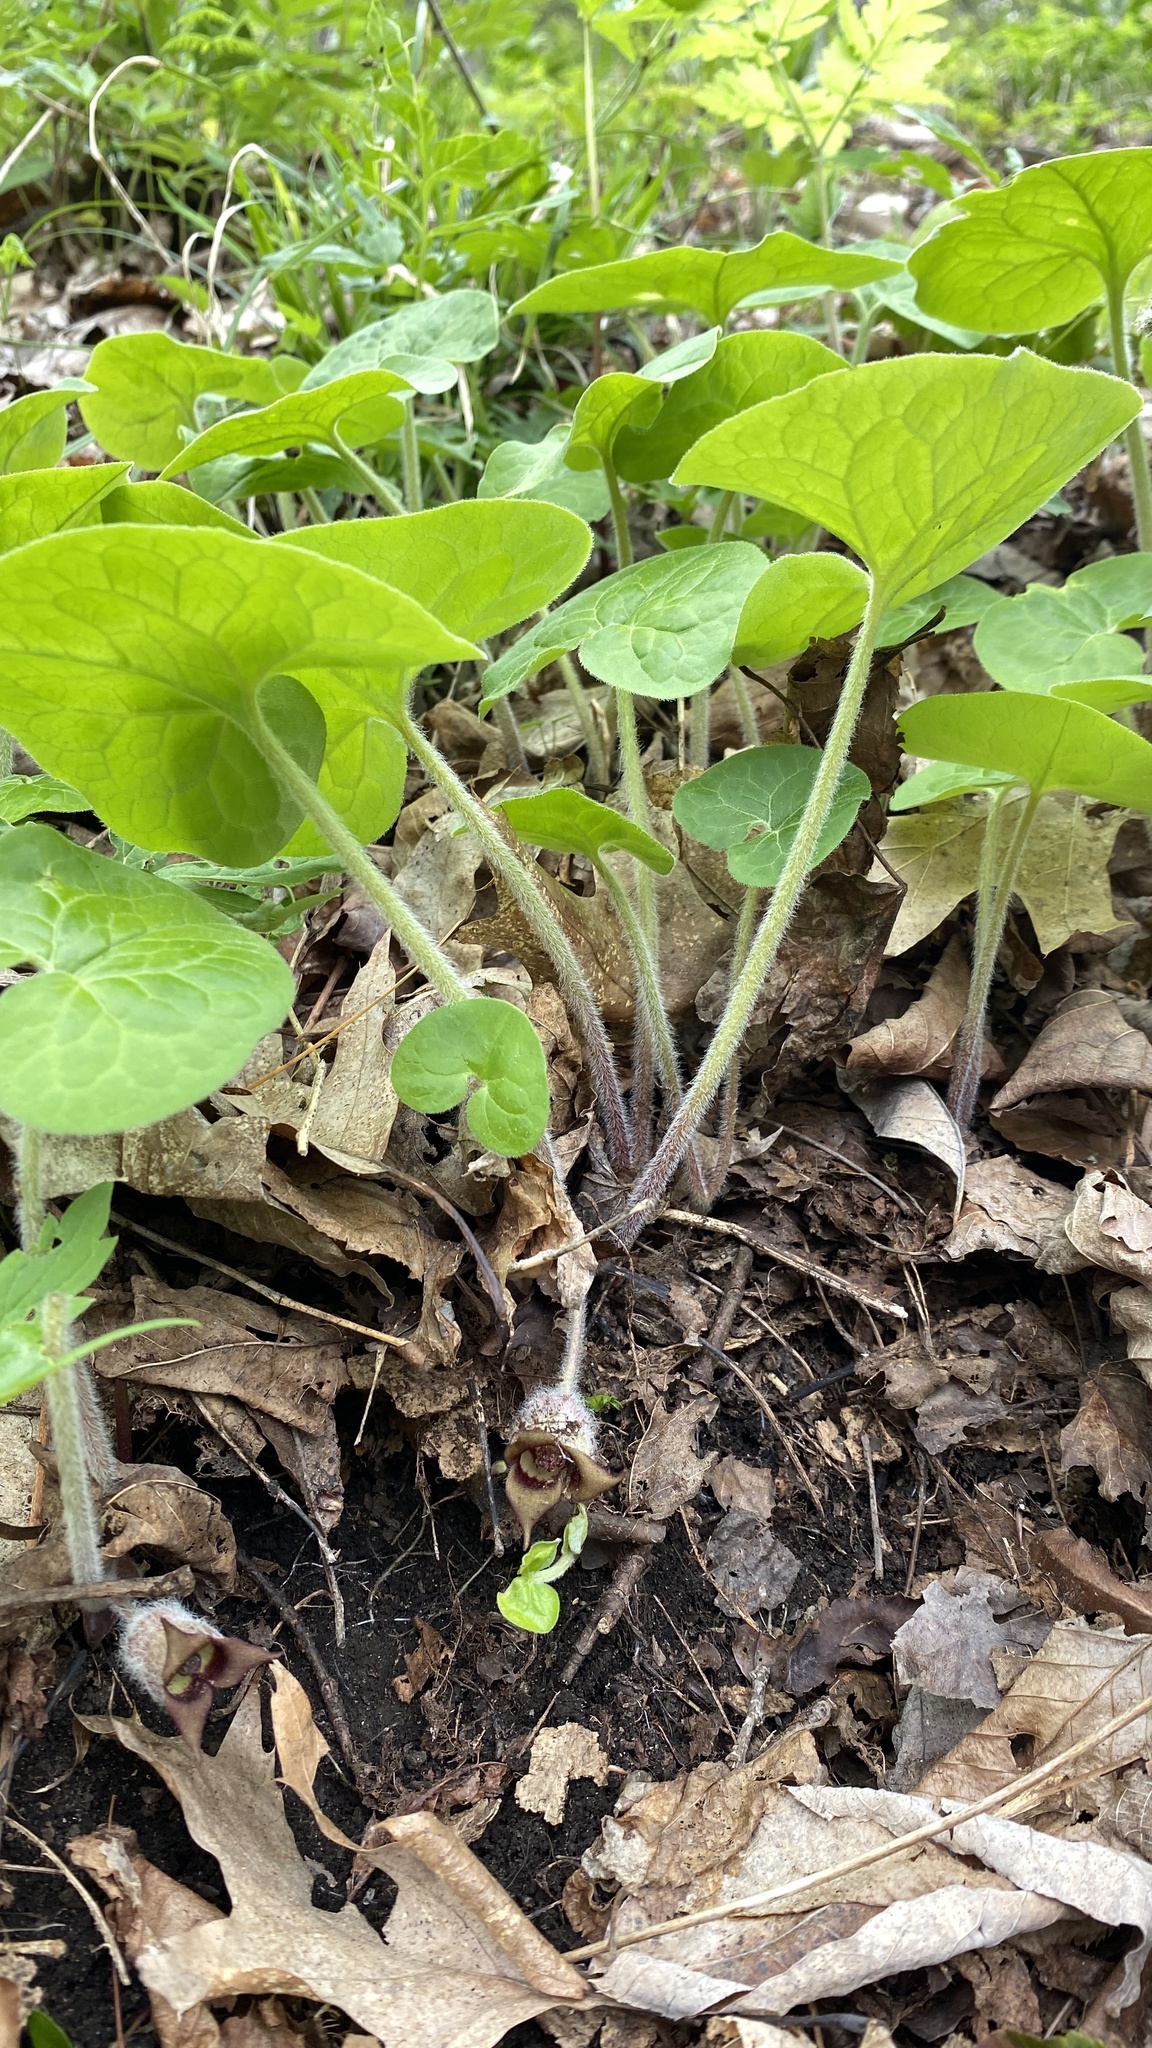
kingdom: Plantae
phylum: Tracheophyta
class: Magnoliopsida
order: Piperales
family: Aristolochiaceae
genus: Asarum
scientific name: Asarum canadense
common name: Wild ginger
